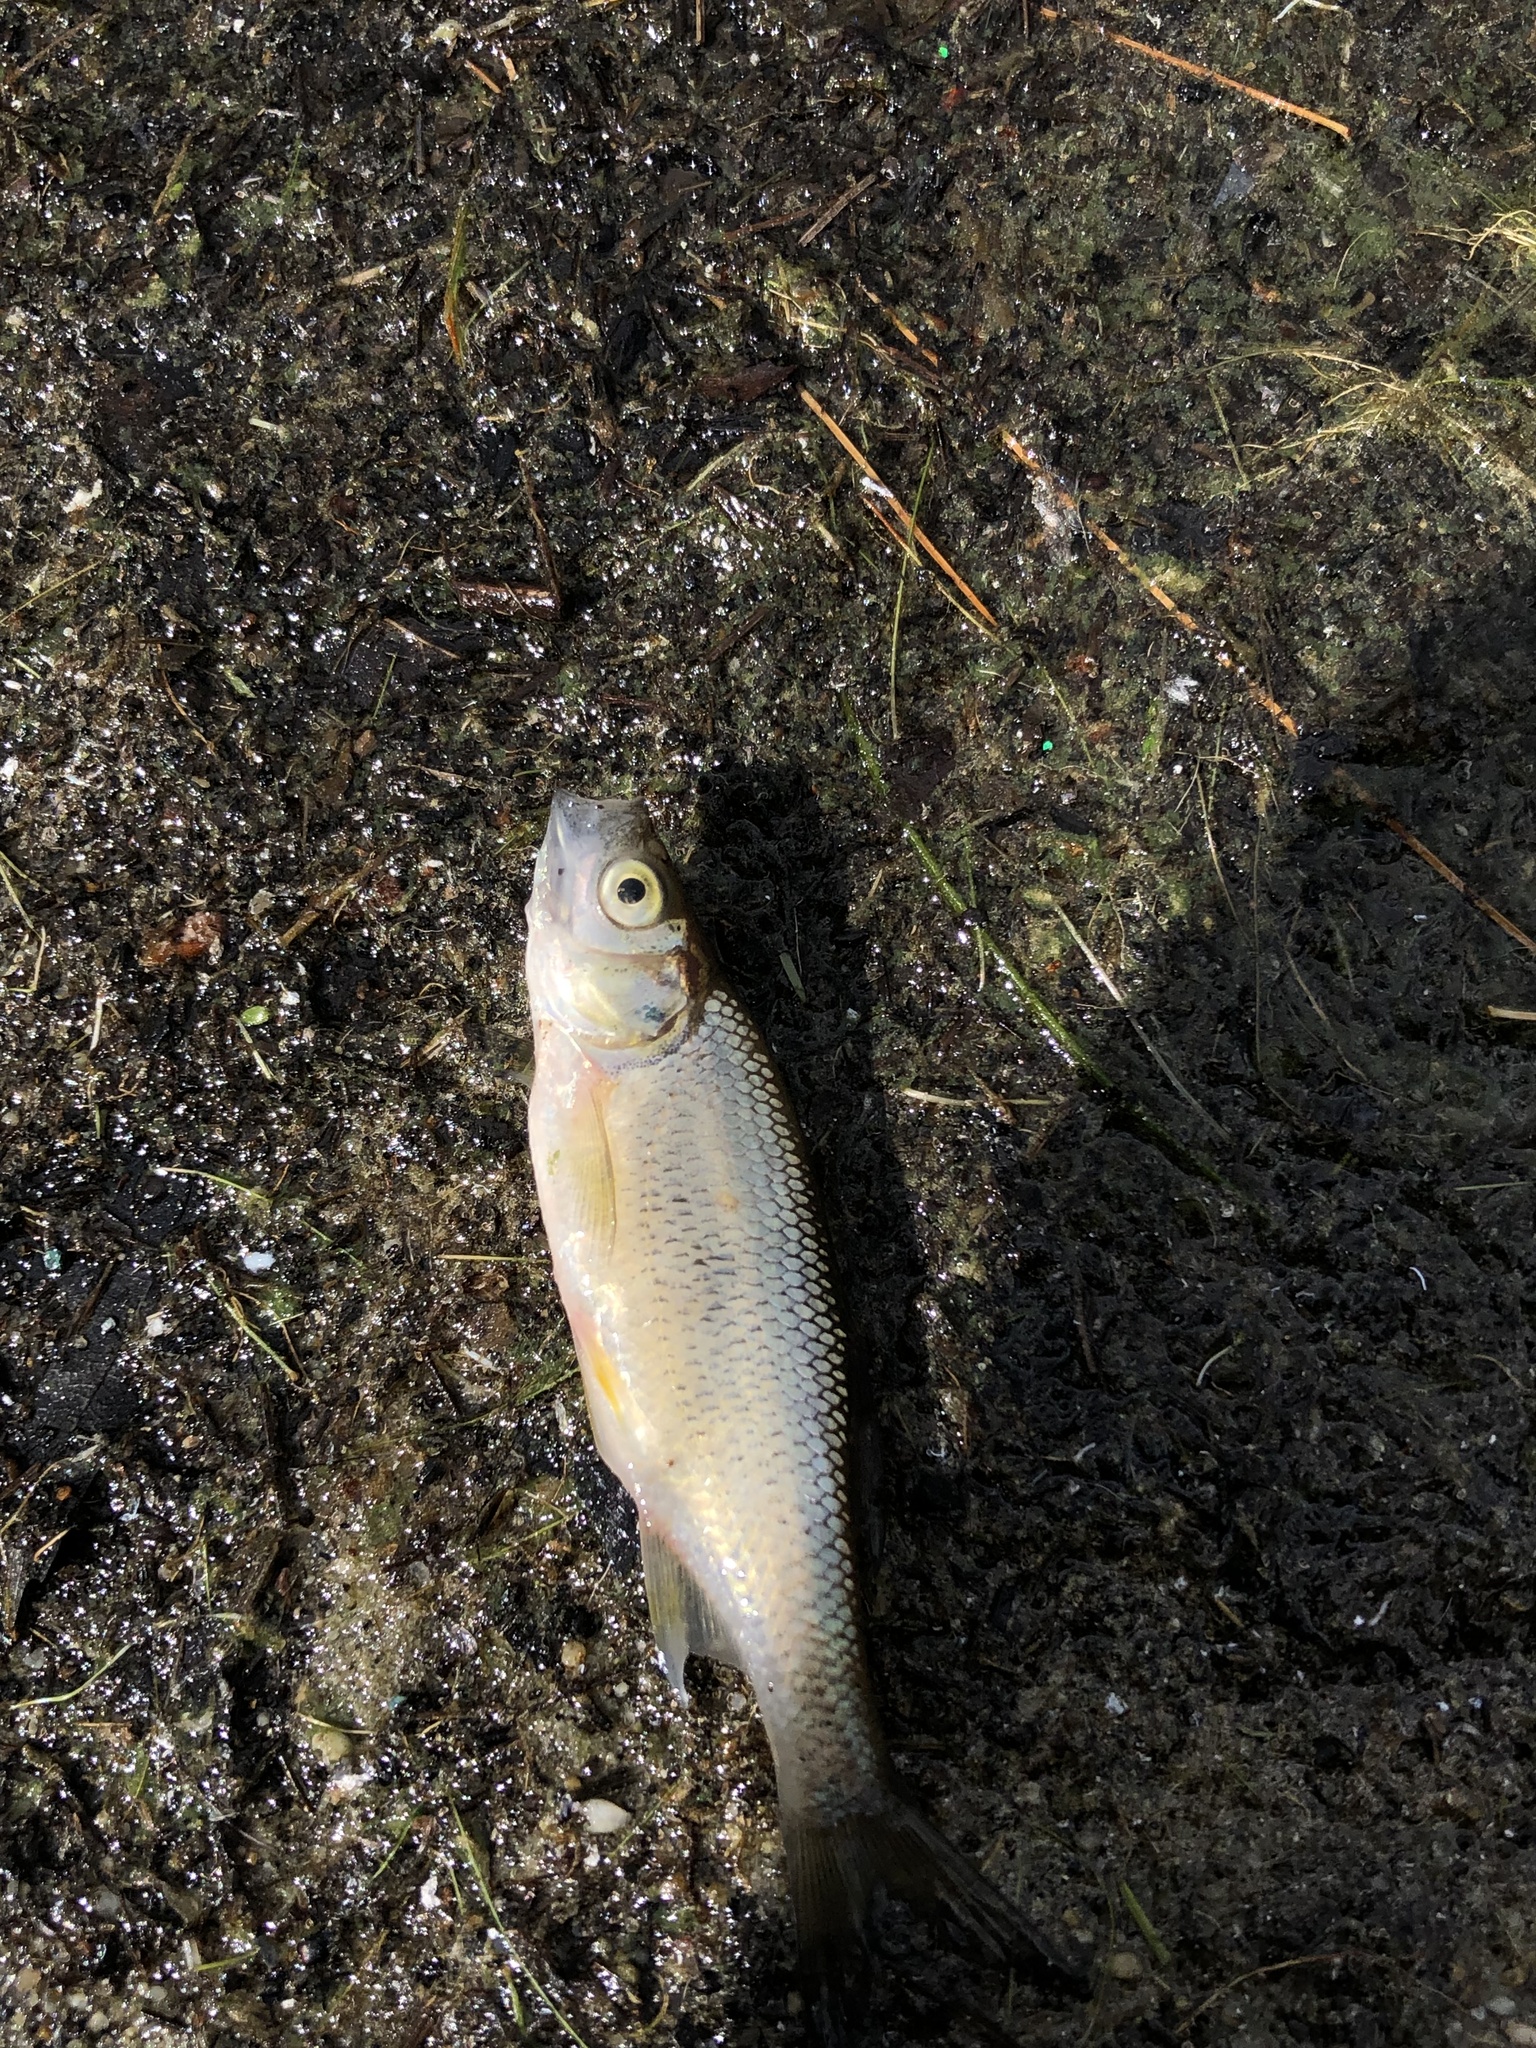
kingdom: Animalia
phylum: Chordata
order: Cypriniformes
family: Cyprinidae
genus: Notemigonus
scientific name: Notemigonus crysoleucas
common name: Golden shiner
